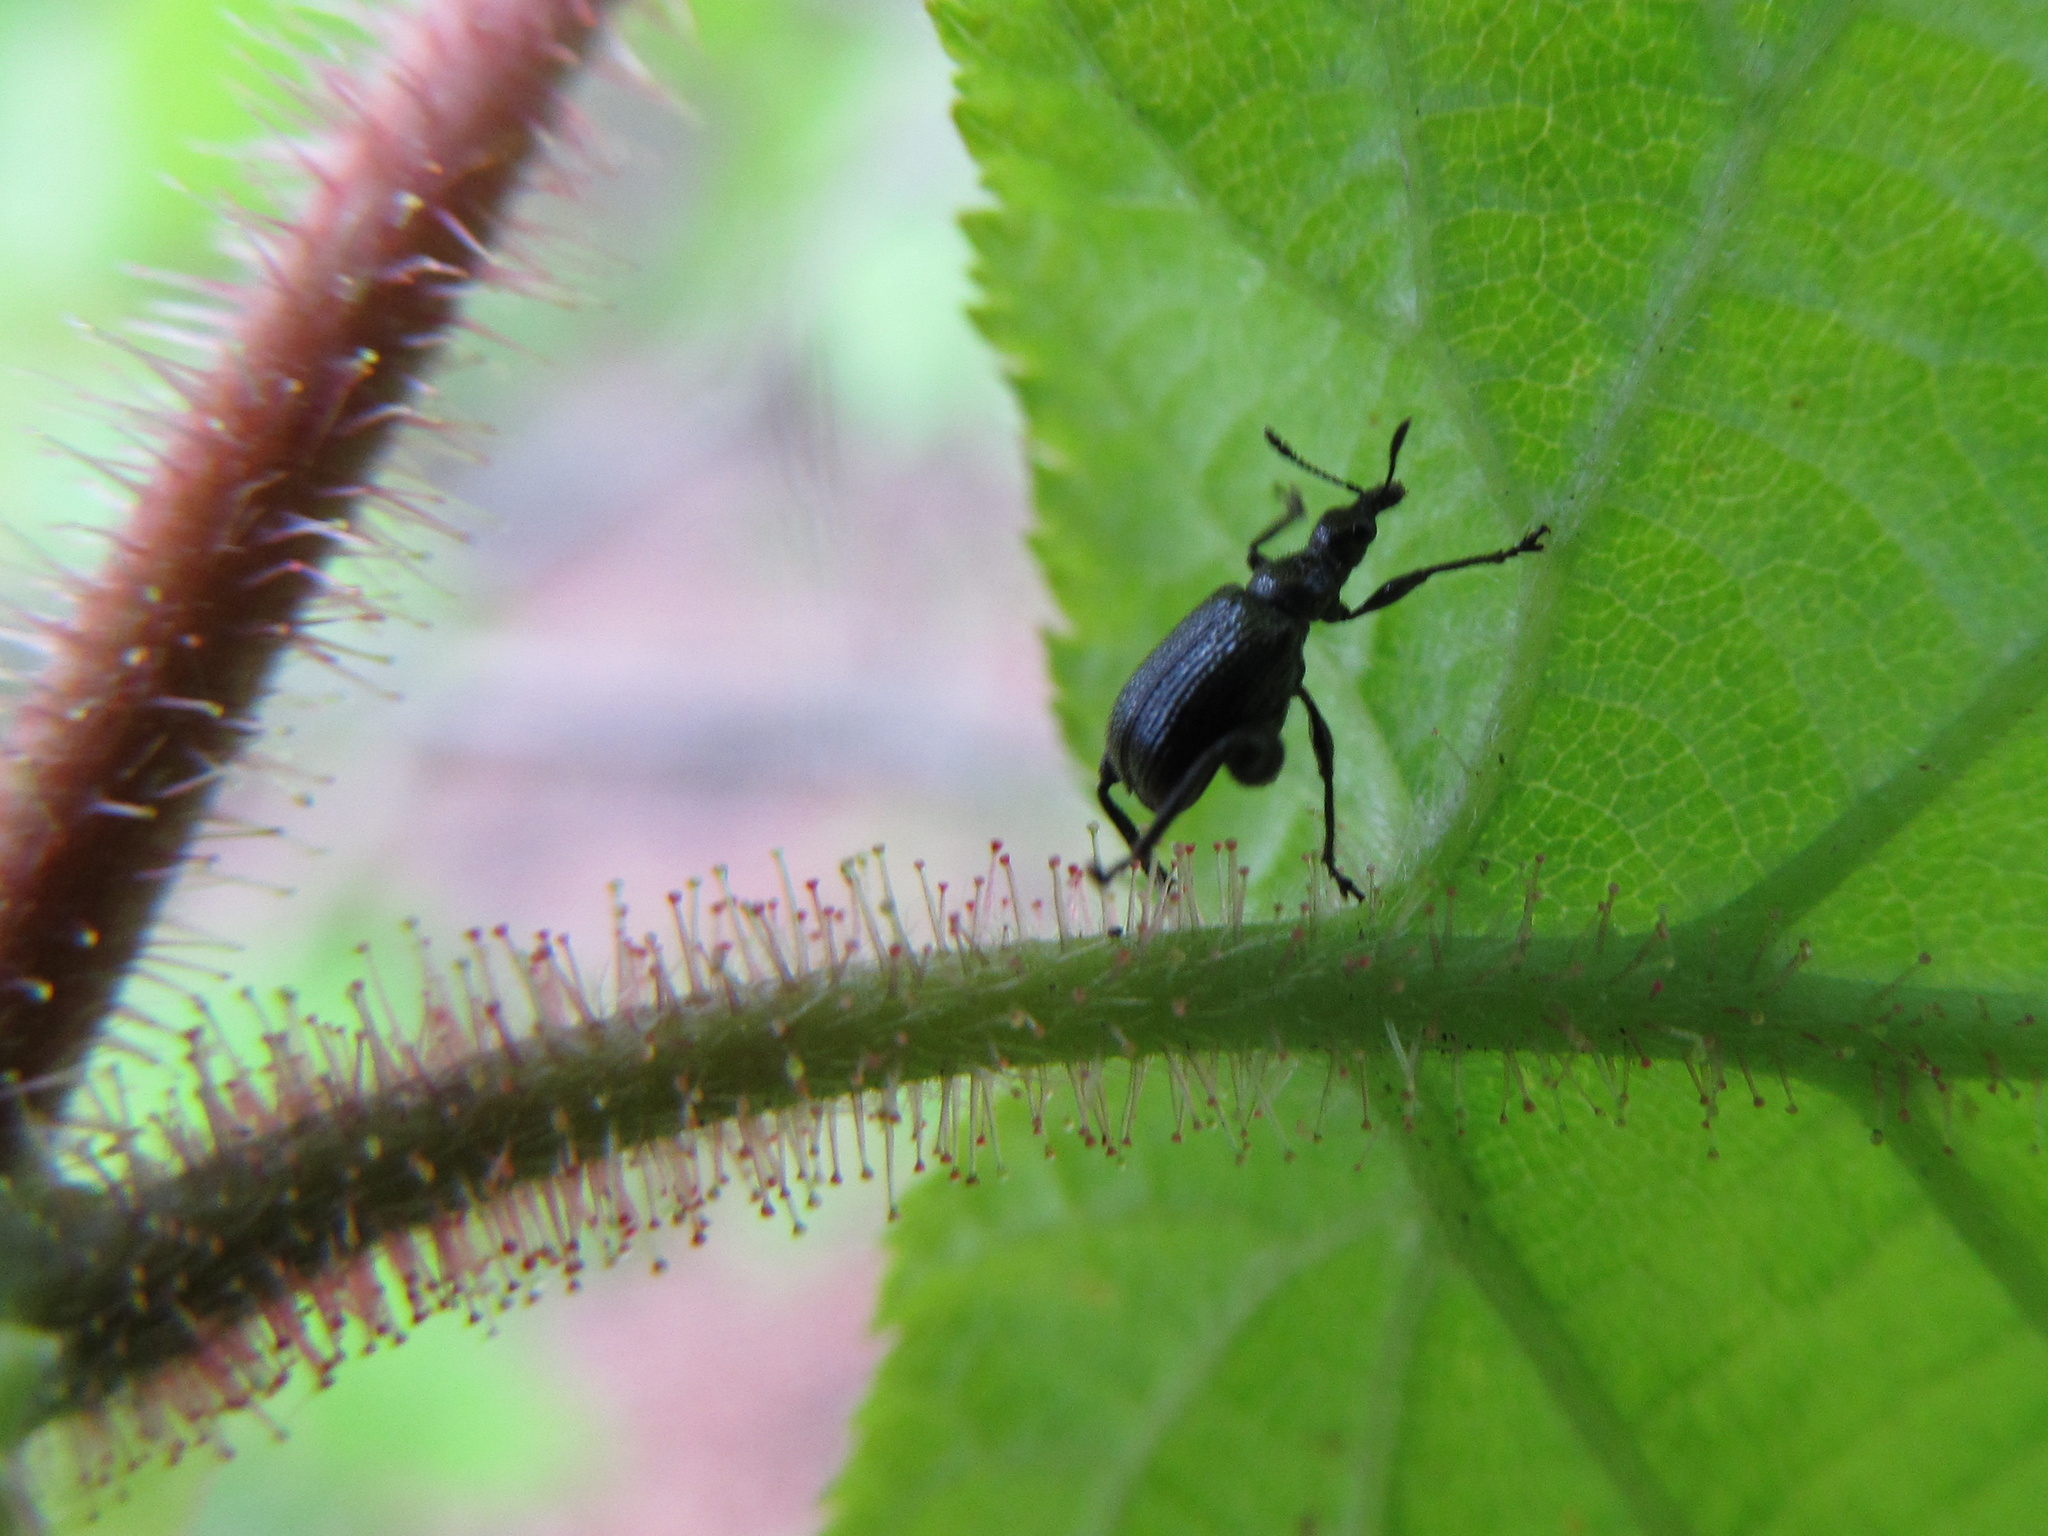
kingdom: Animalia
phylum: Arthropoda
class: Insecta
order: Coleoptera
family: Attelabidae
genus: Deporaus
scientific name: Deporaus betulae
